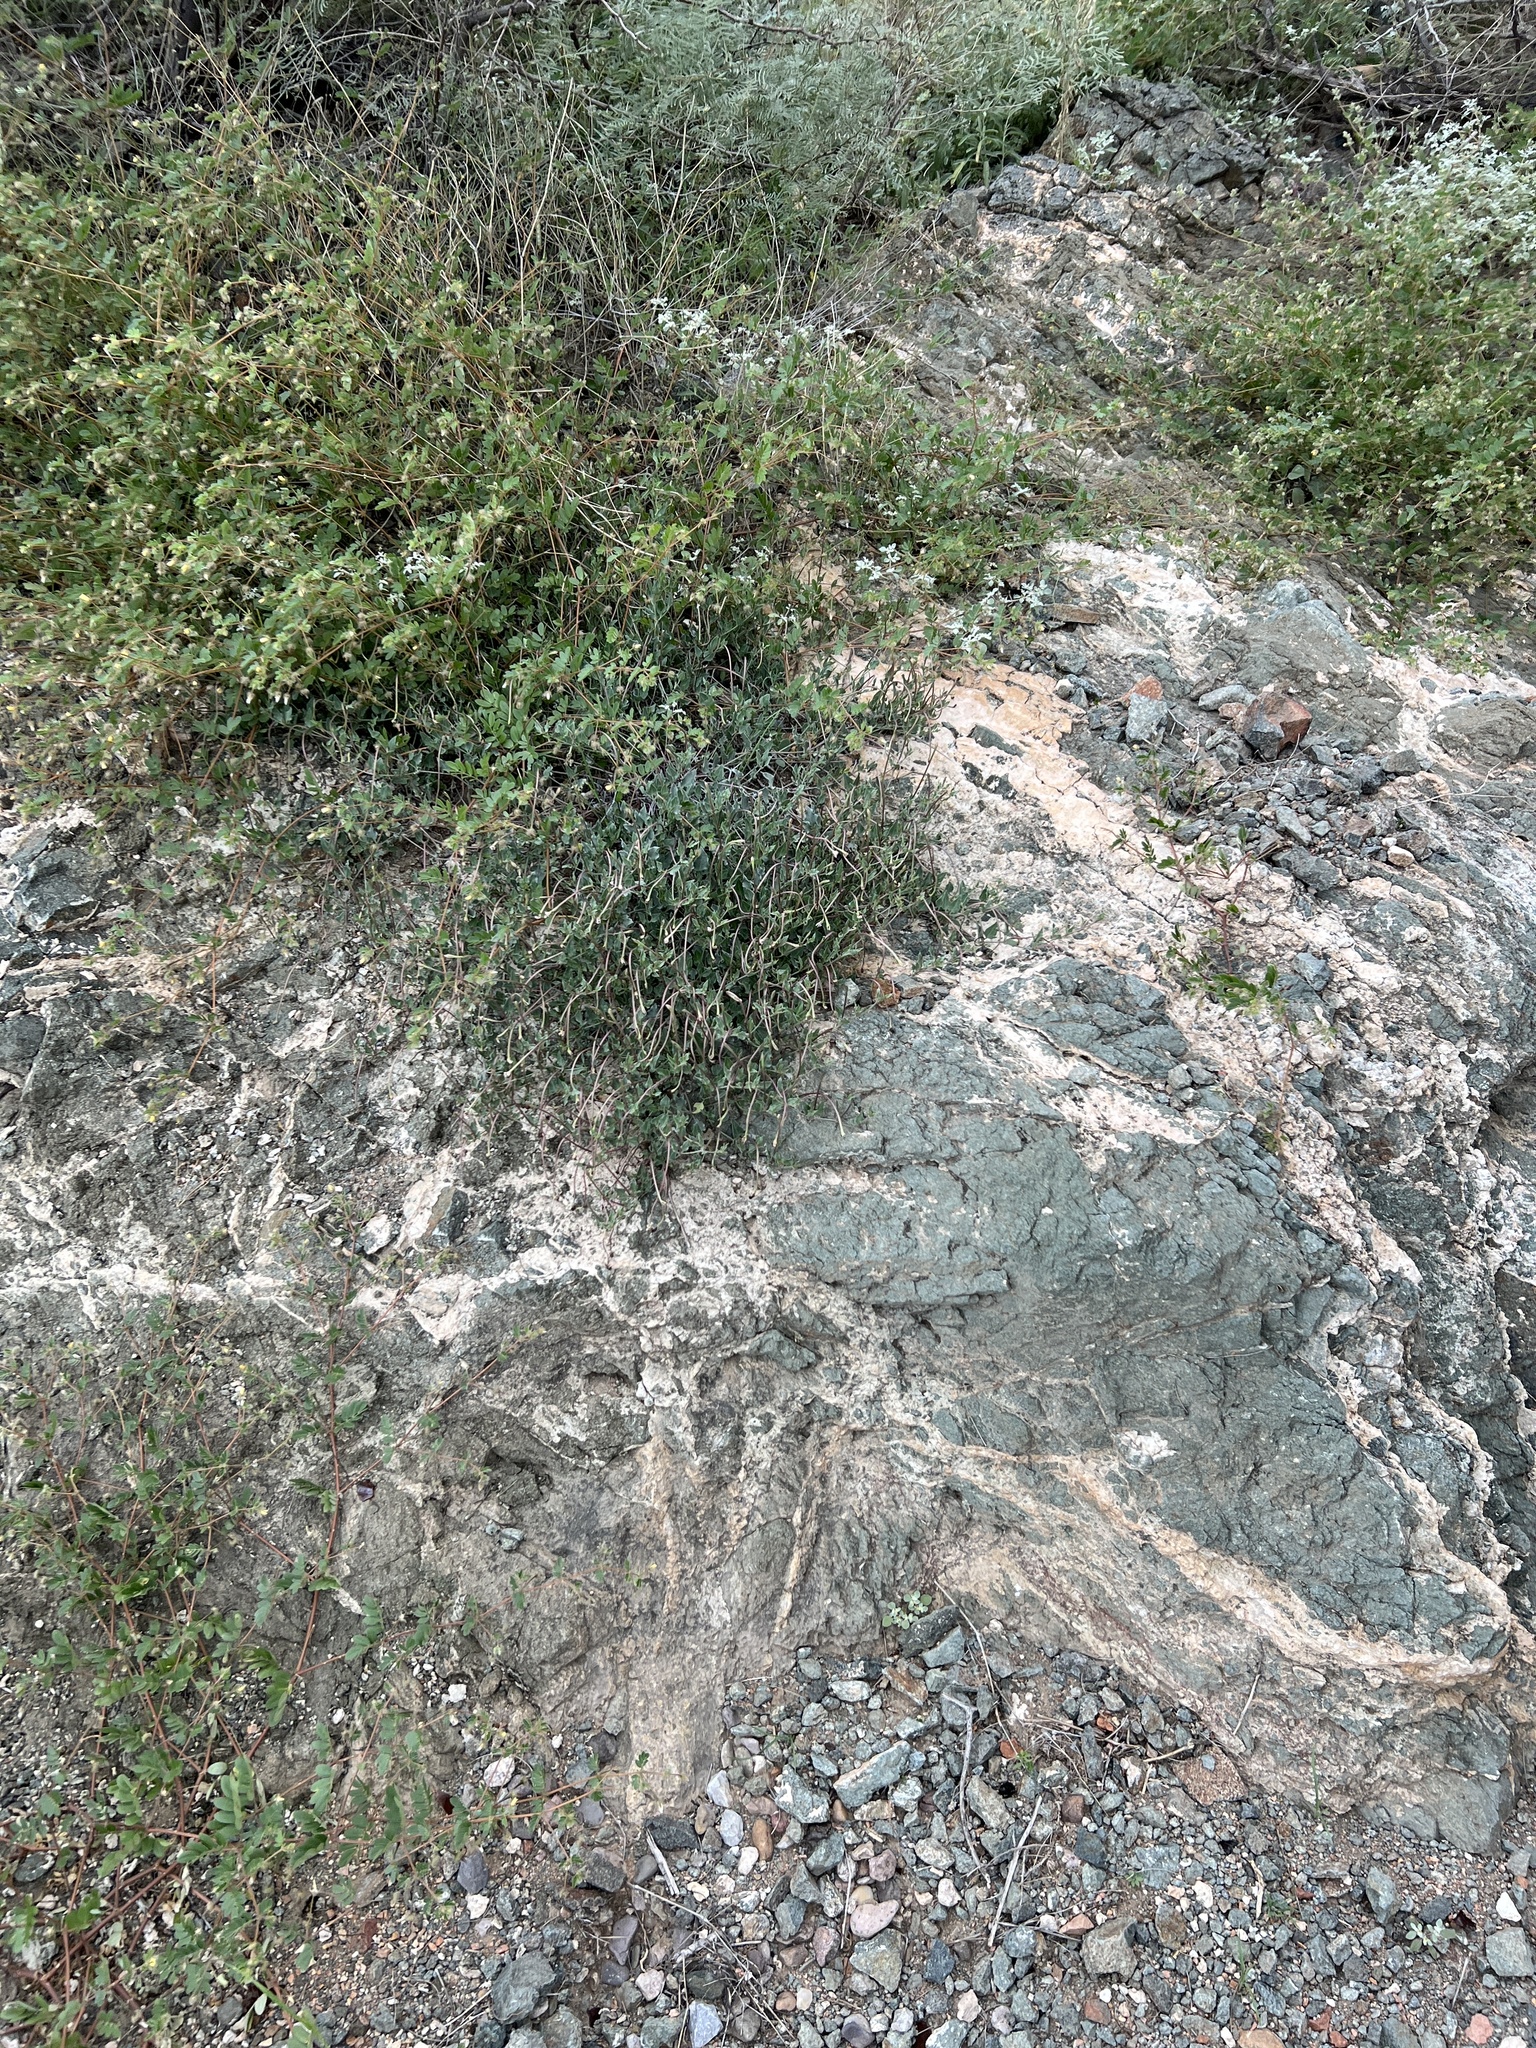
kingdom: Plantae
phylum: Tracheophyta
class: Magnoliopsida
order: Caryophyllales
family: Nyctaginaceae
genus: Acleisanthes
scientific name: Acleisanthes longiflora
